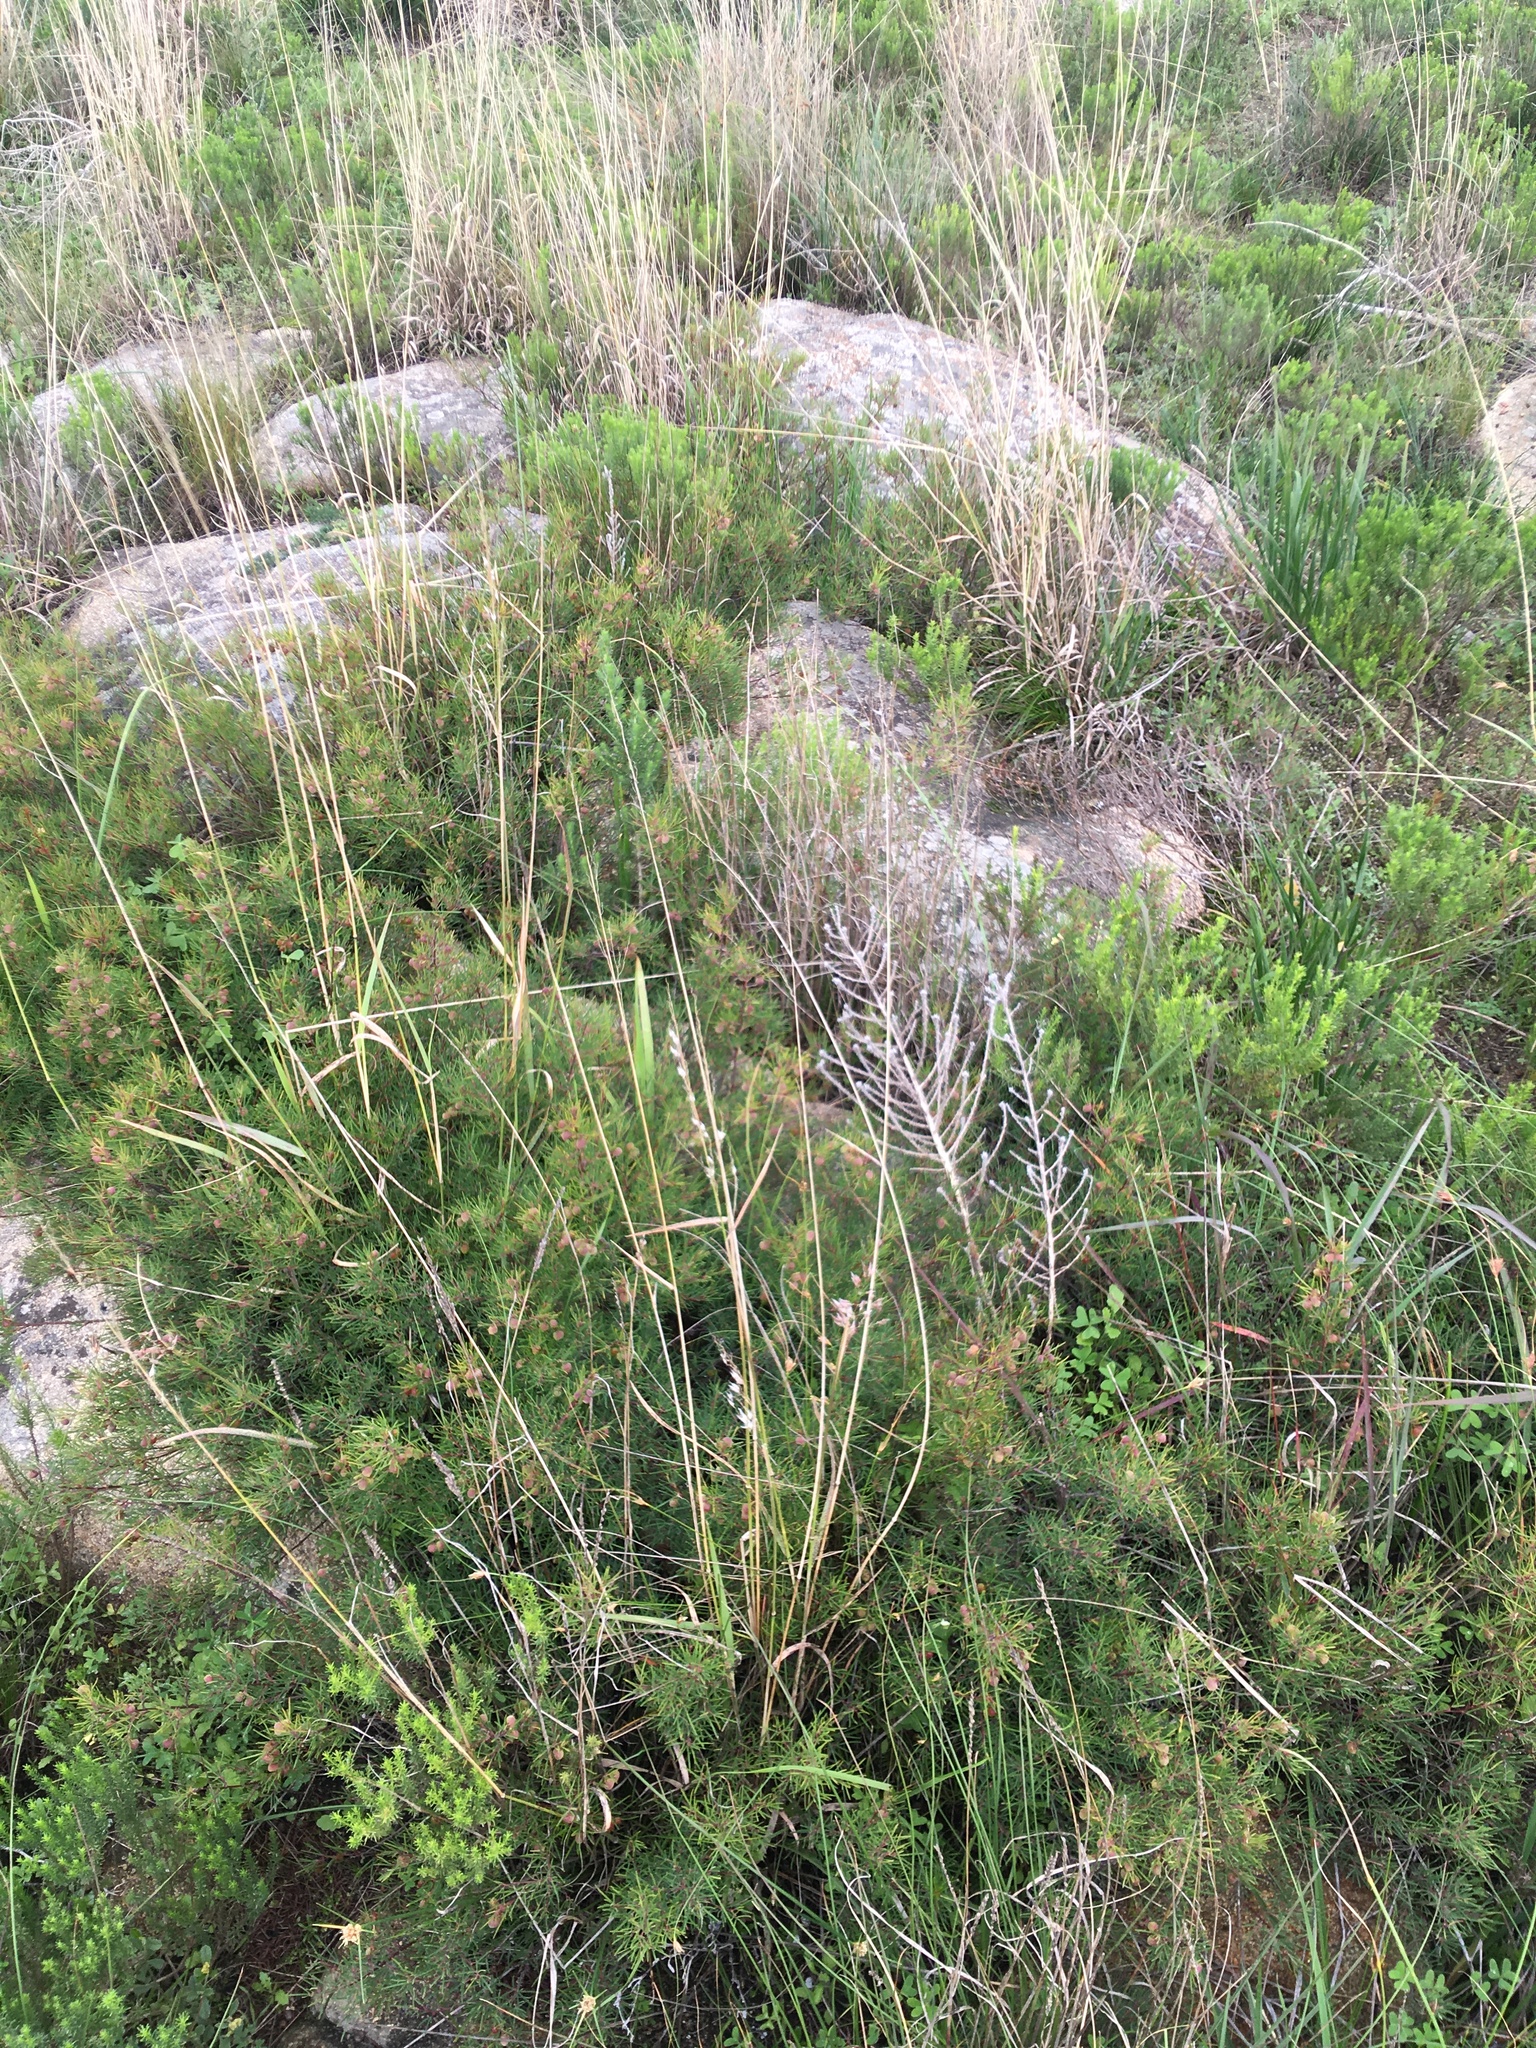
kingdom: Plantae
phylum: Tracheophyta
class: Magnoliopsida
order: Sapindales
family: Anacardiaceae
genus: Searsia
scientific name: Searsia rosmarinifolia
